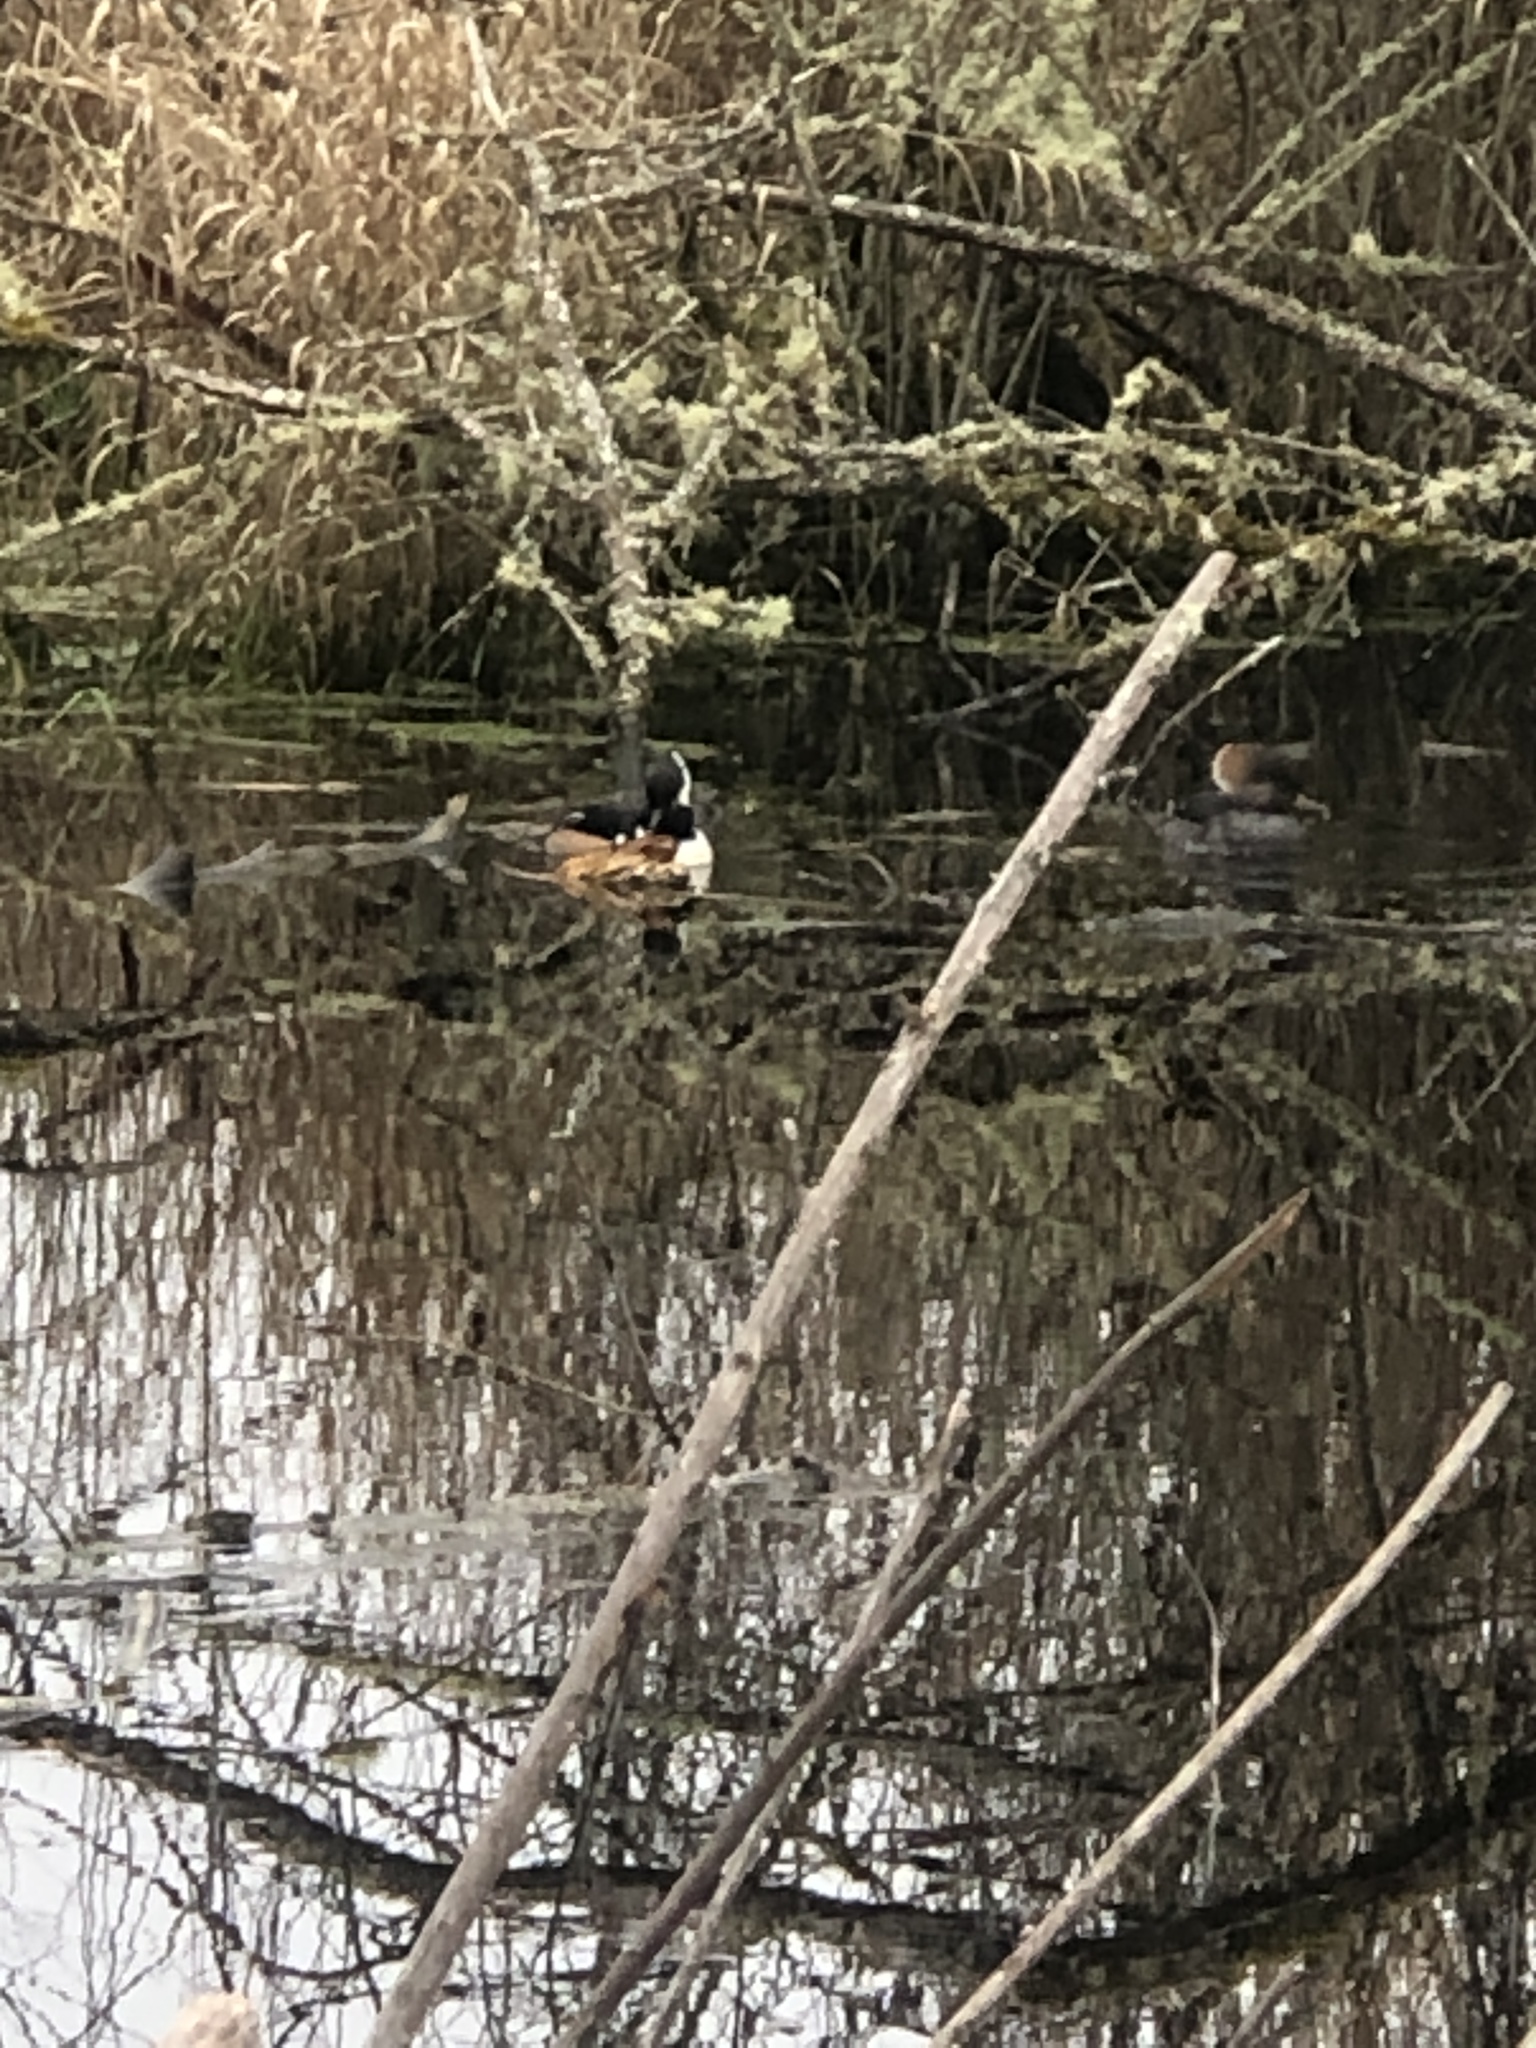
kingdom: Animalia
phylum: Chordata
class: Aves
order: Anseriformes
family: Anatidae
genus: Lophodytes
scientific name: Lophodytes cucullatus
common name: Hooded merganser
